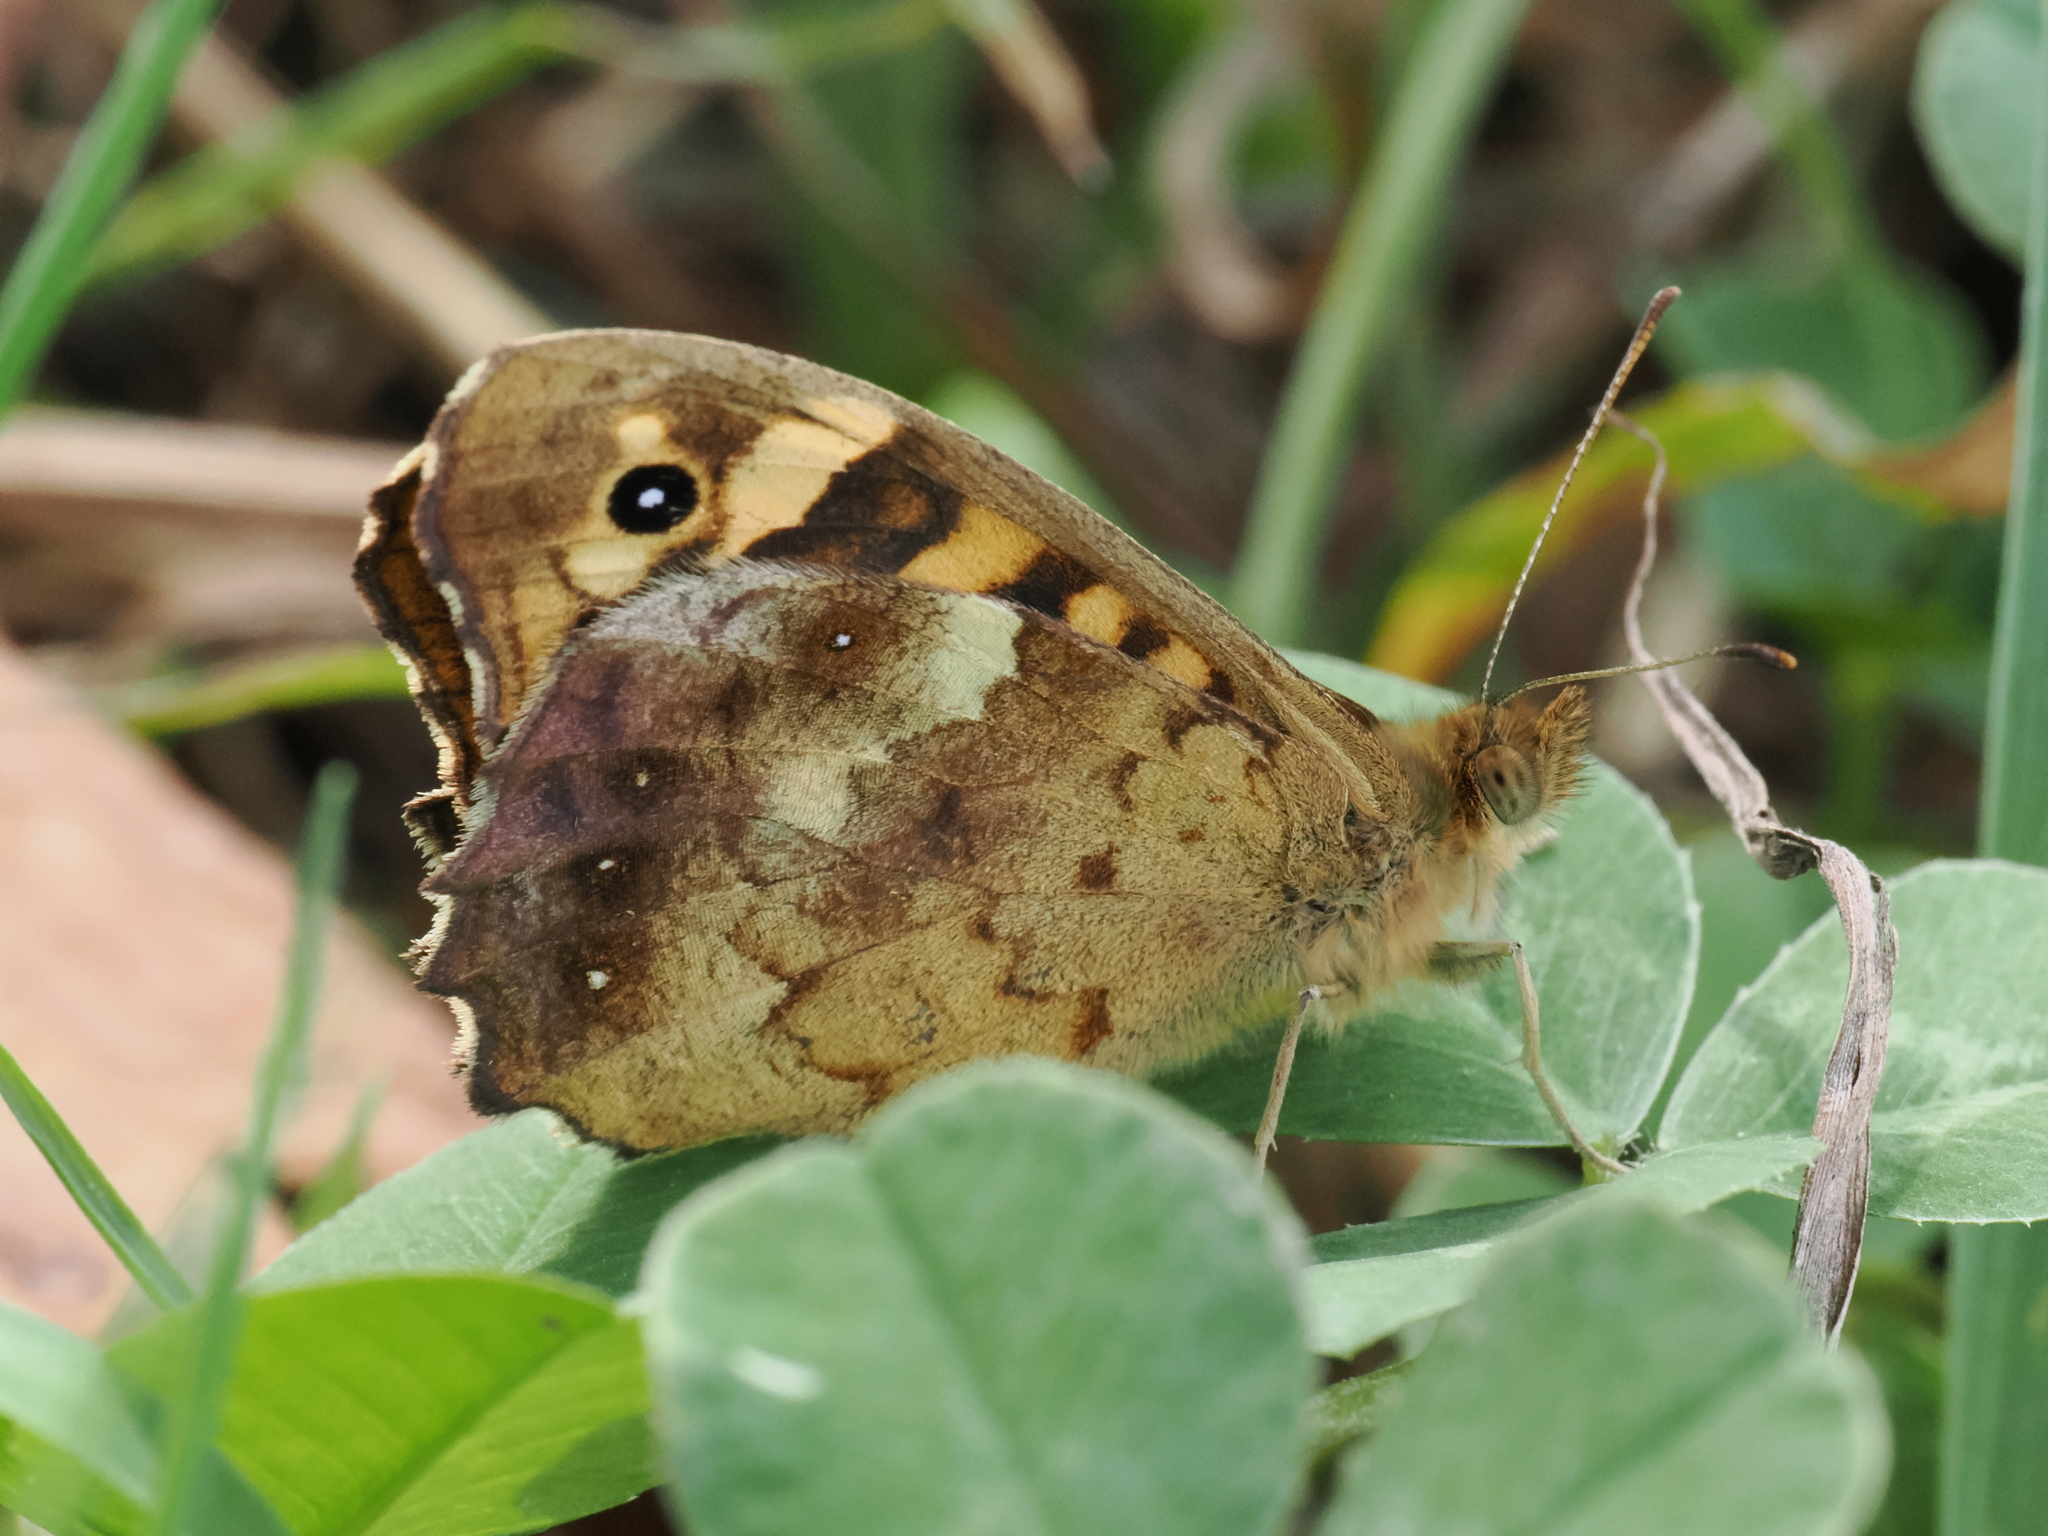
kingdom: Animalia
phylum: Arthropoda
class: Insecta
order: Lepidoptera
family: Nymphalidae
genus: Pararge
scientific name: Pararge aegeria
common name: Speckled wood
